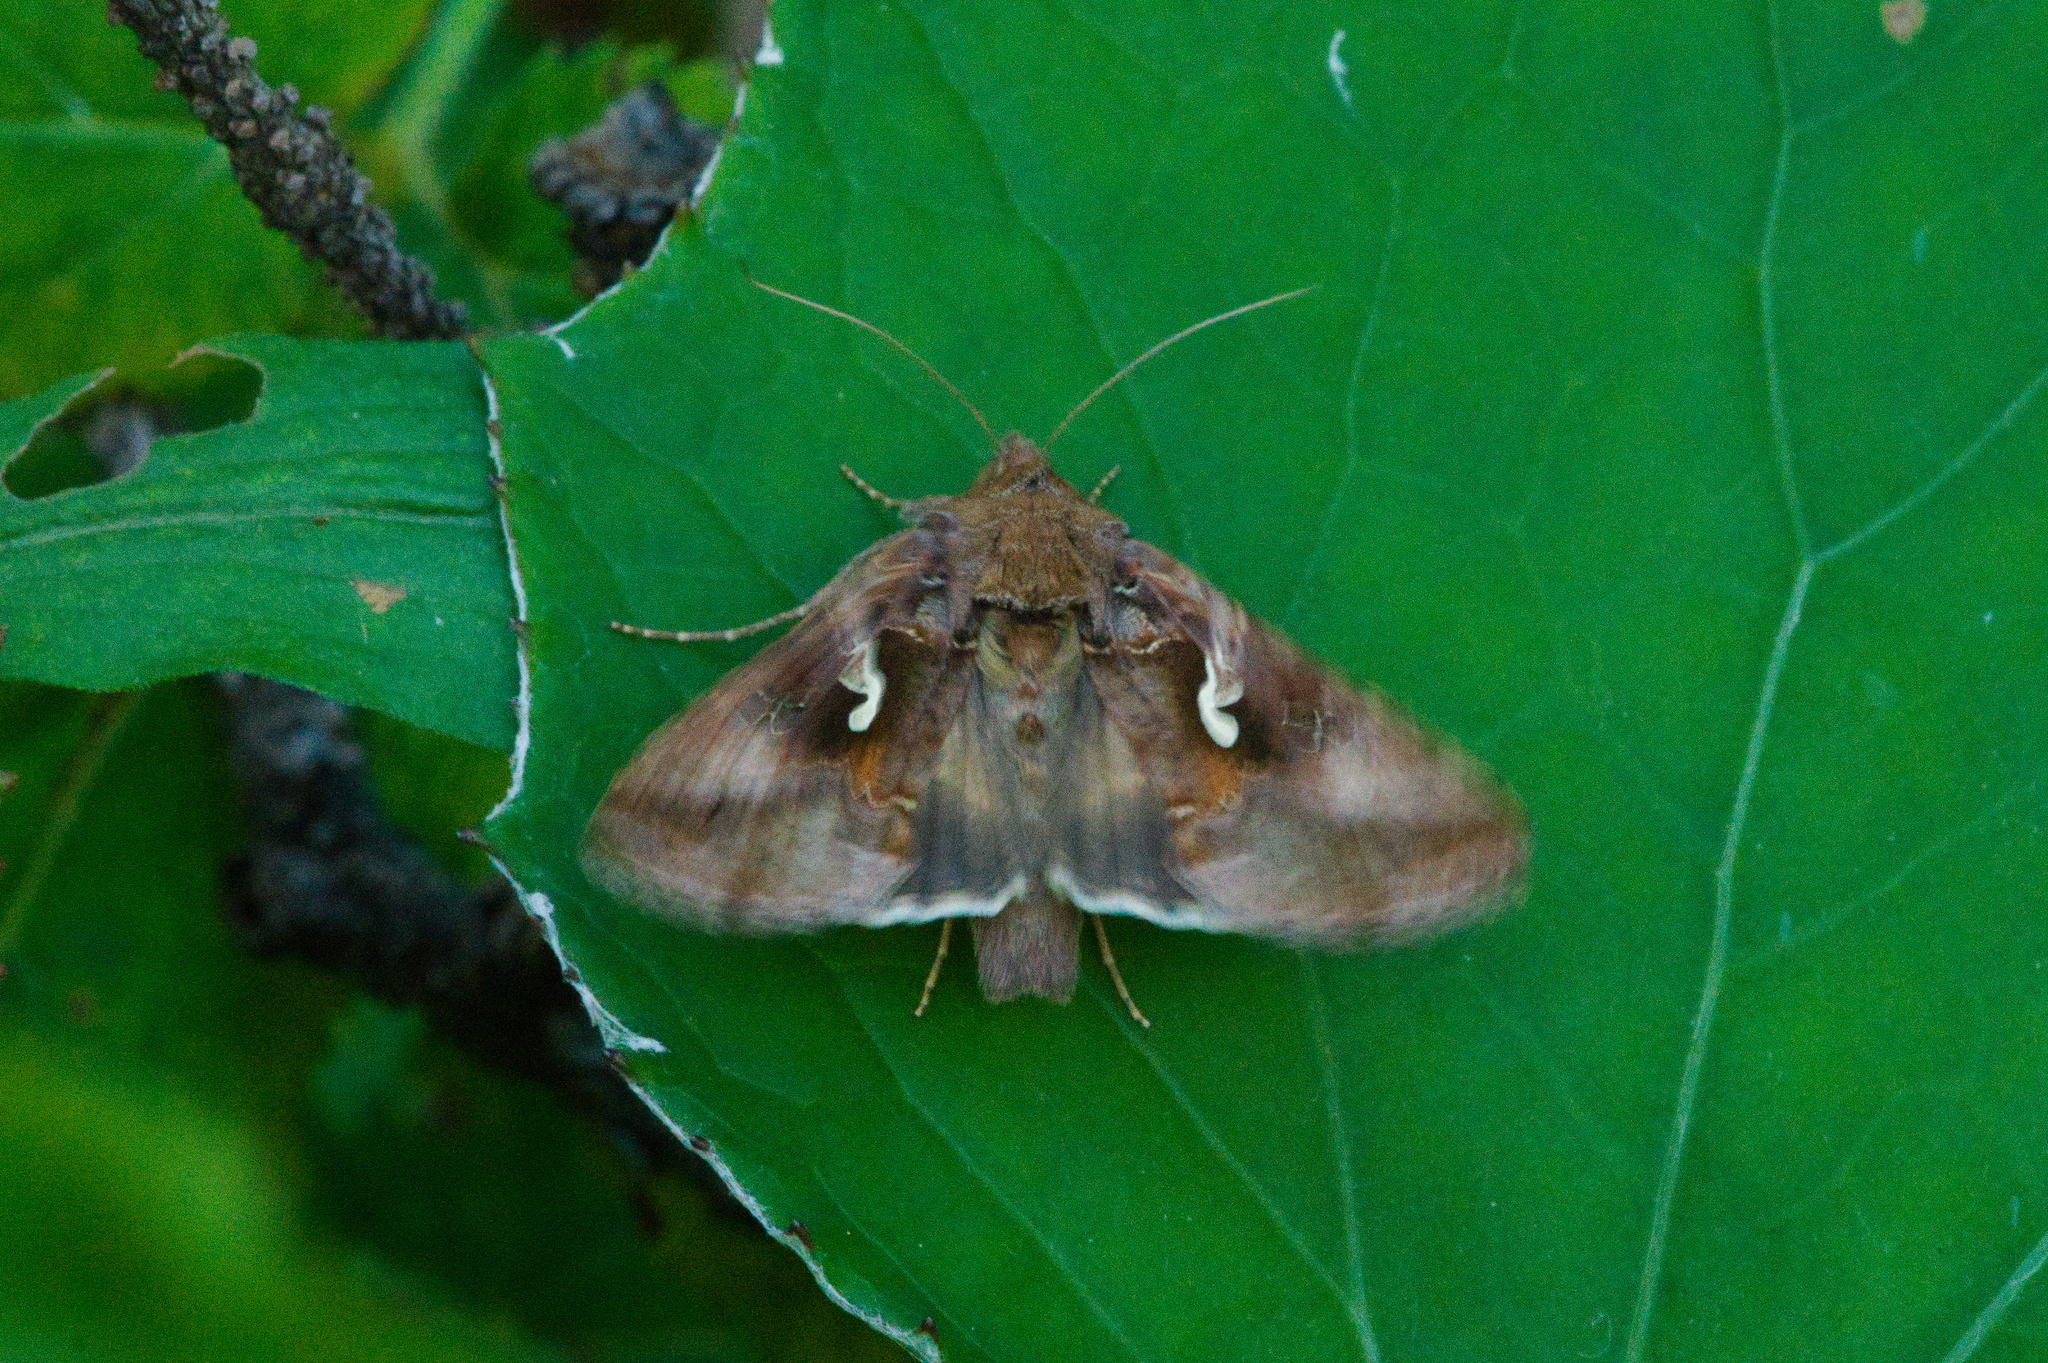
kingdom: Animalia
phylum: Arthropoda
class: Insecta
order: Lepidoptera
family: Noctuidae
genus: Autographa
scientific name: Autographa gamma
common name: Silver y
